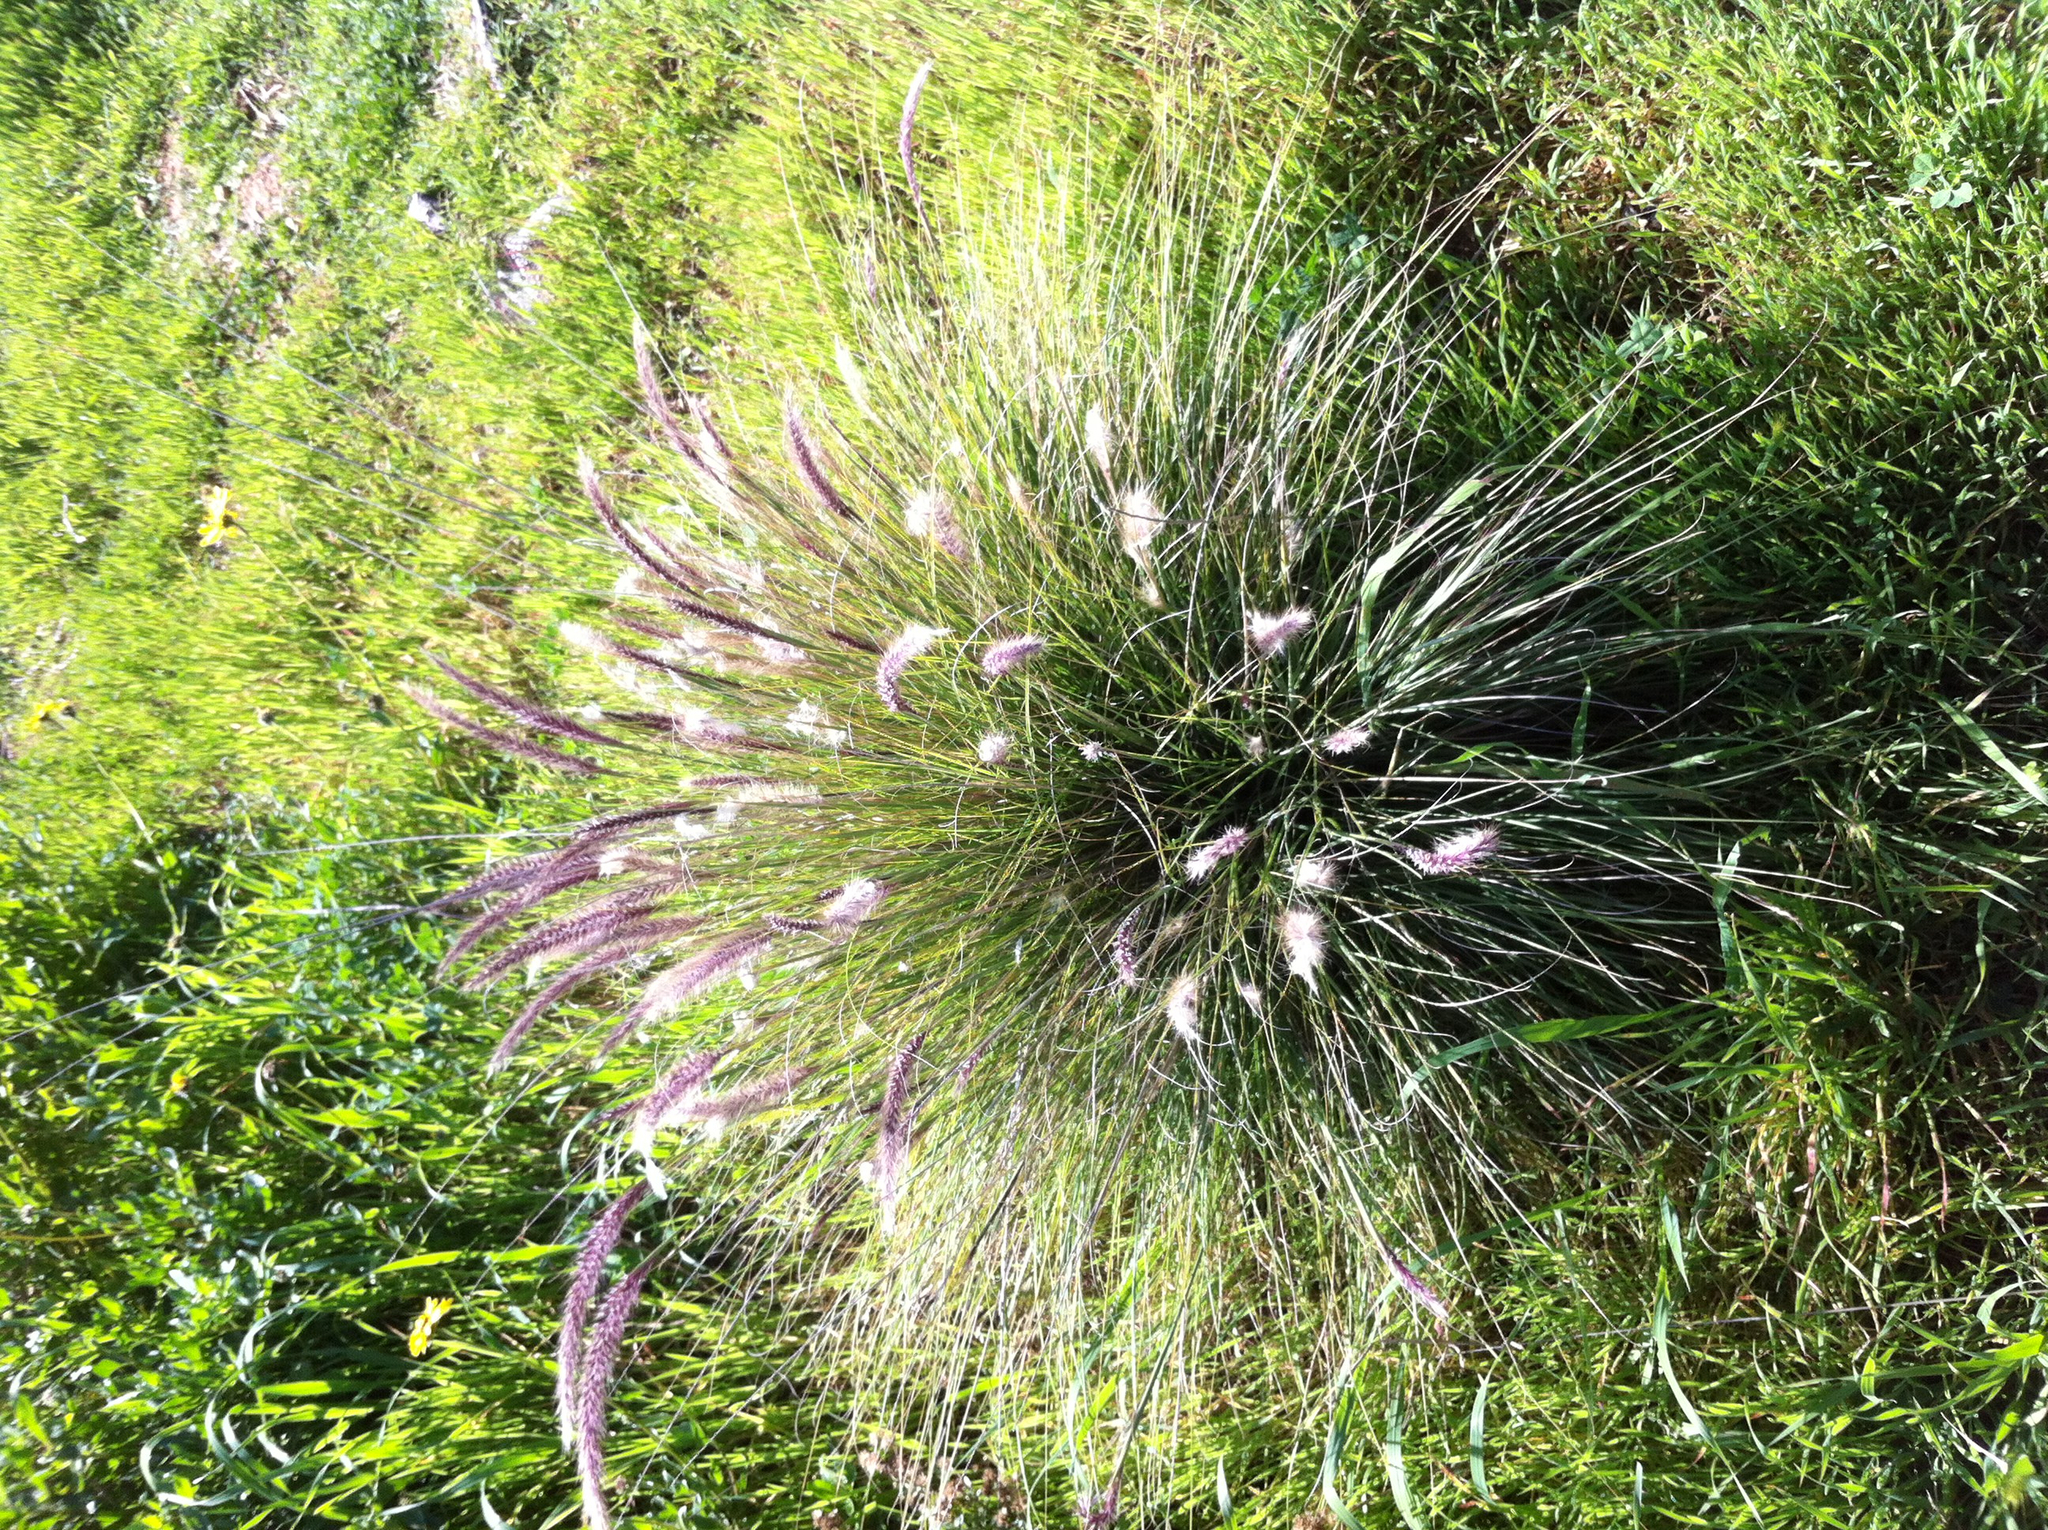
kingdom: Plantae
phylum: Tracheophyta
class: Liliopsida
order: Poales
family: Poaceae
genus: Cenchrus
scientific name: Cenchrus setaceus
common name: Crimson fountaingrass
